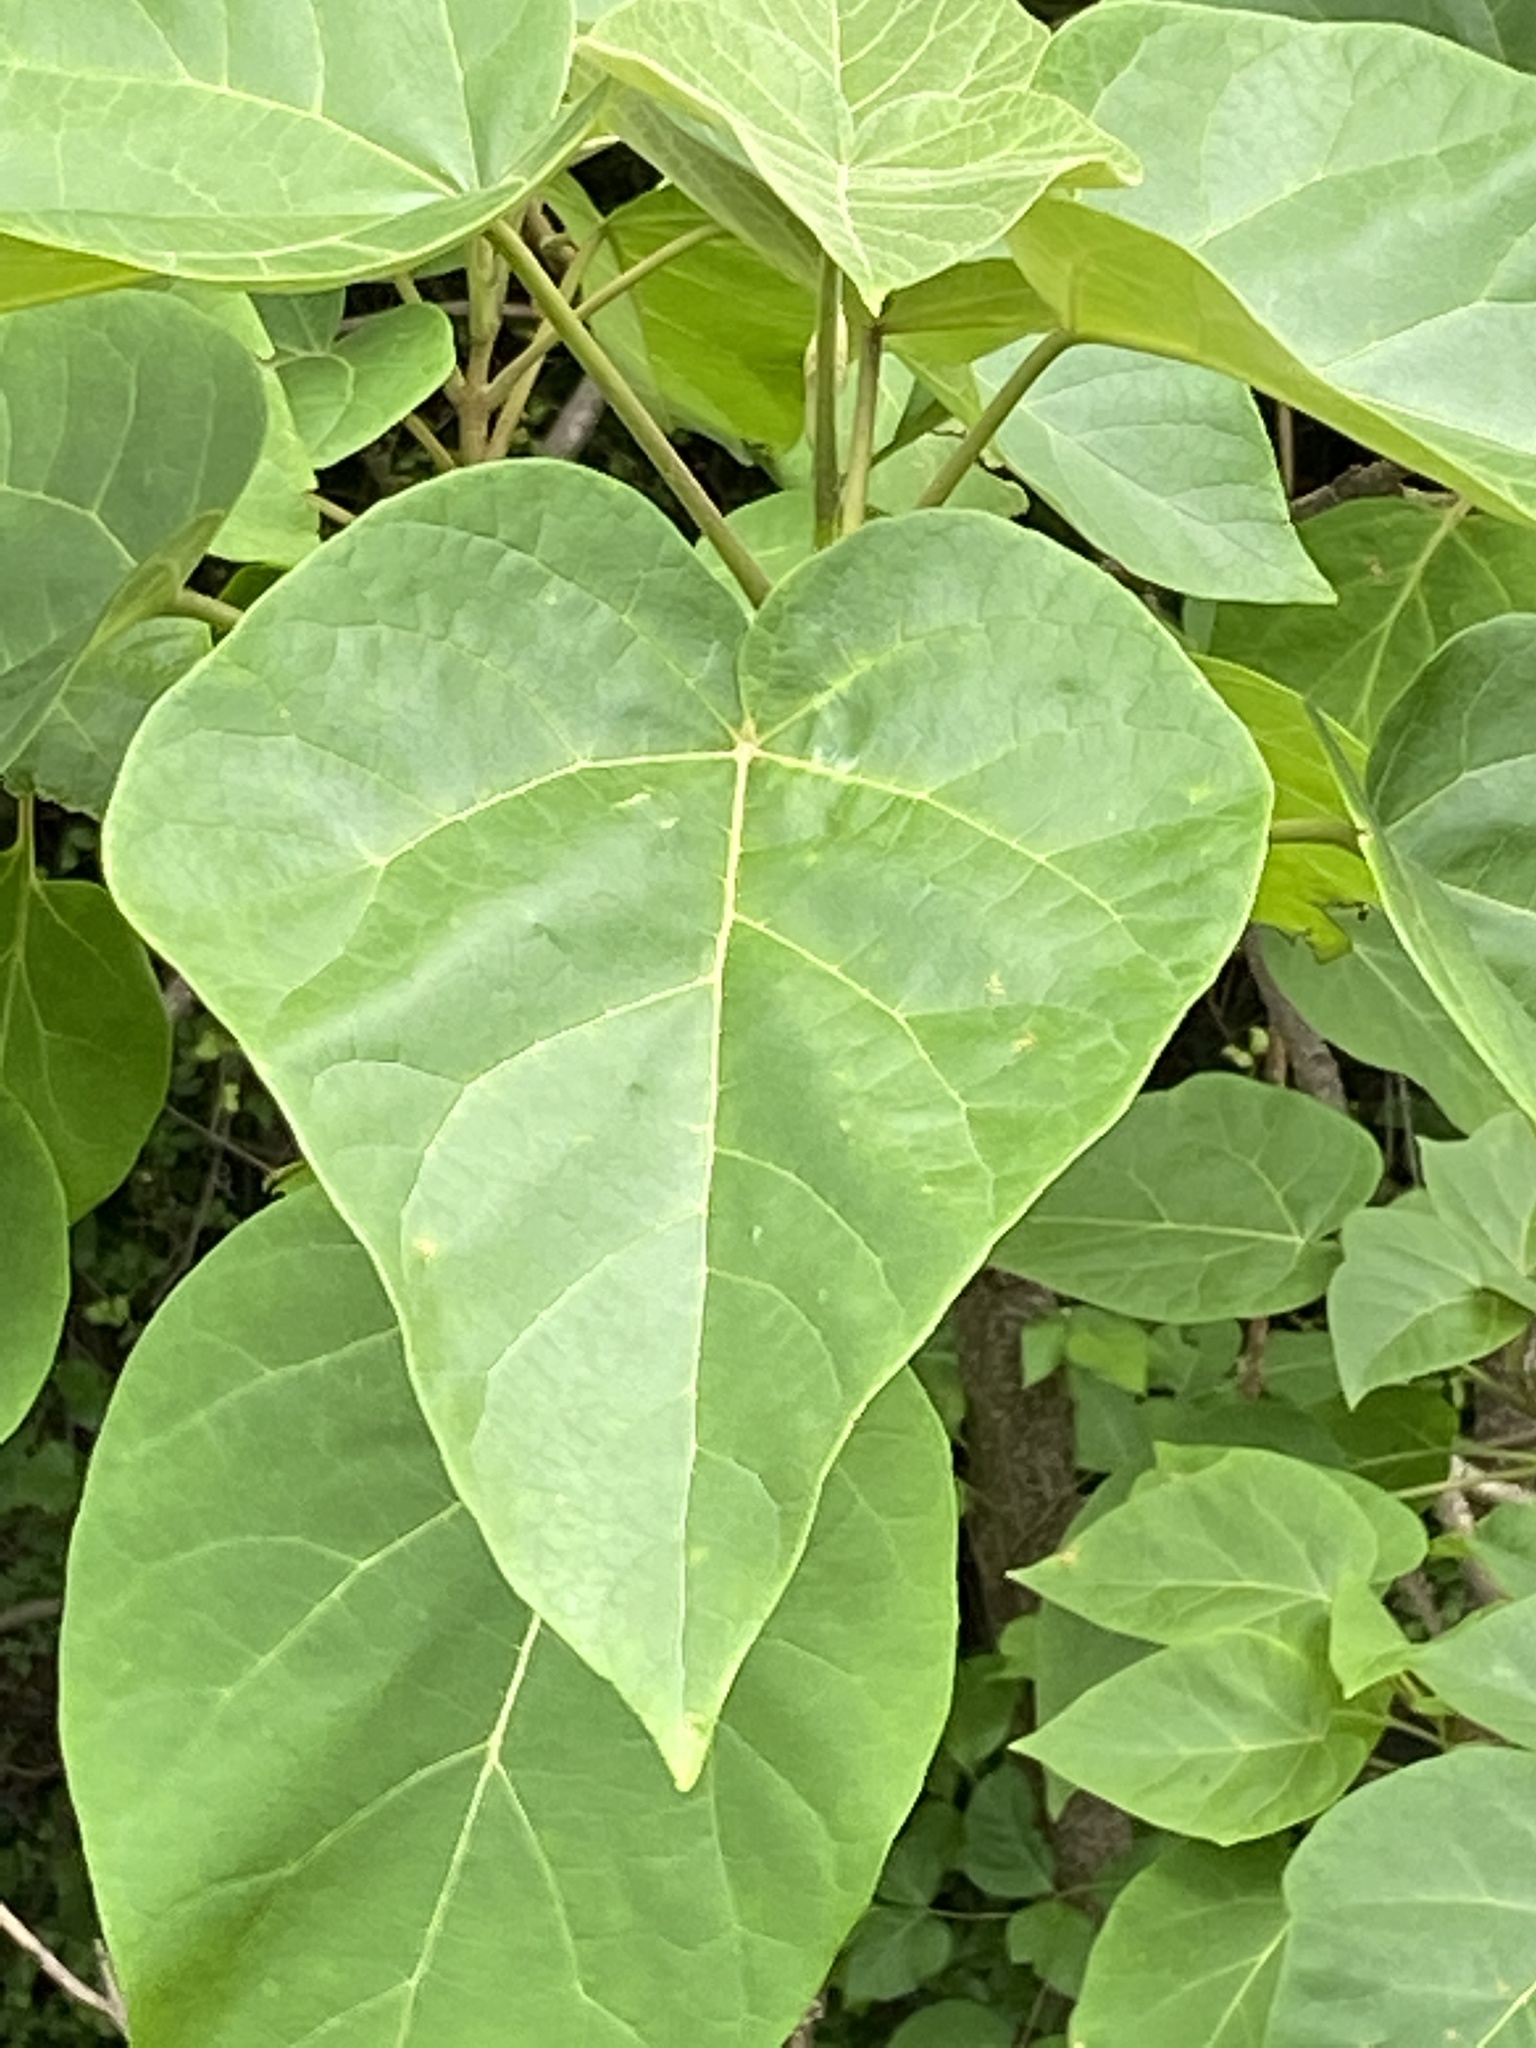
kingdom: Plantae
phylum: Tracheophyta
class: Magnoliopsida
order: Lamiales
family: Paulowniaceae
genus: Paulownia
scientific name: Paulownia tomentosa
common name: Foxglove-tree
